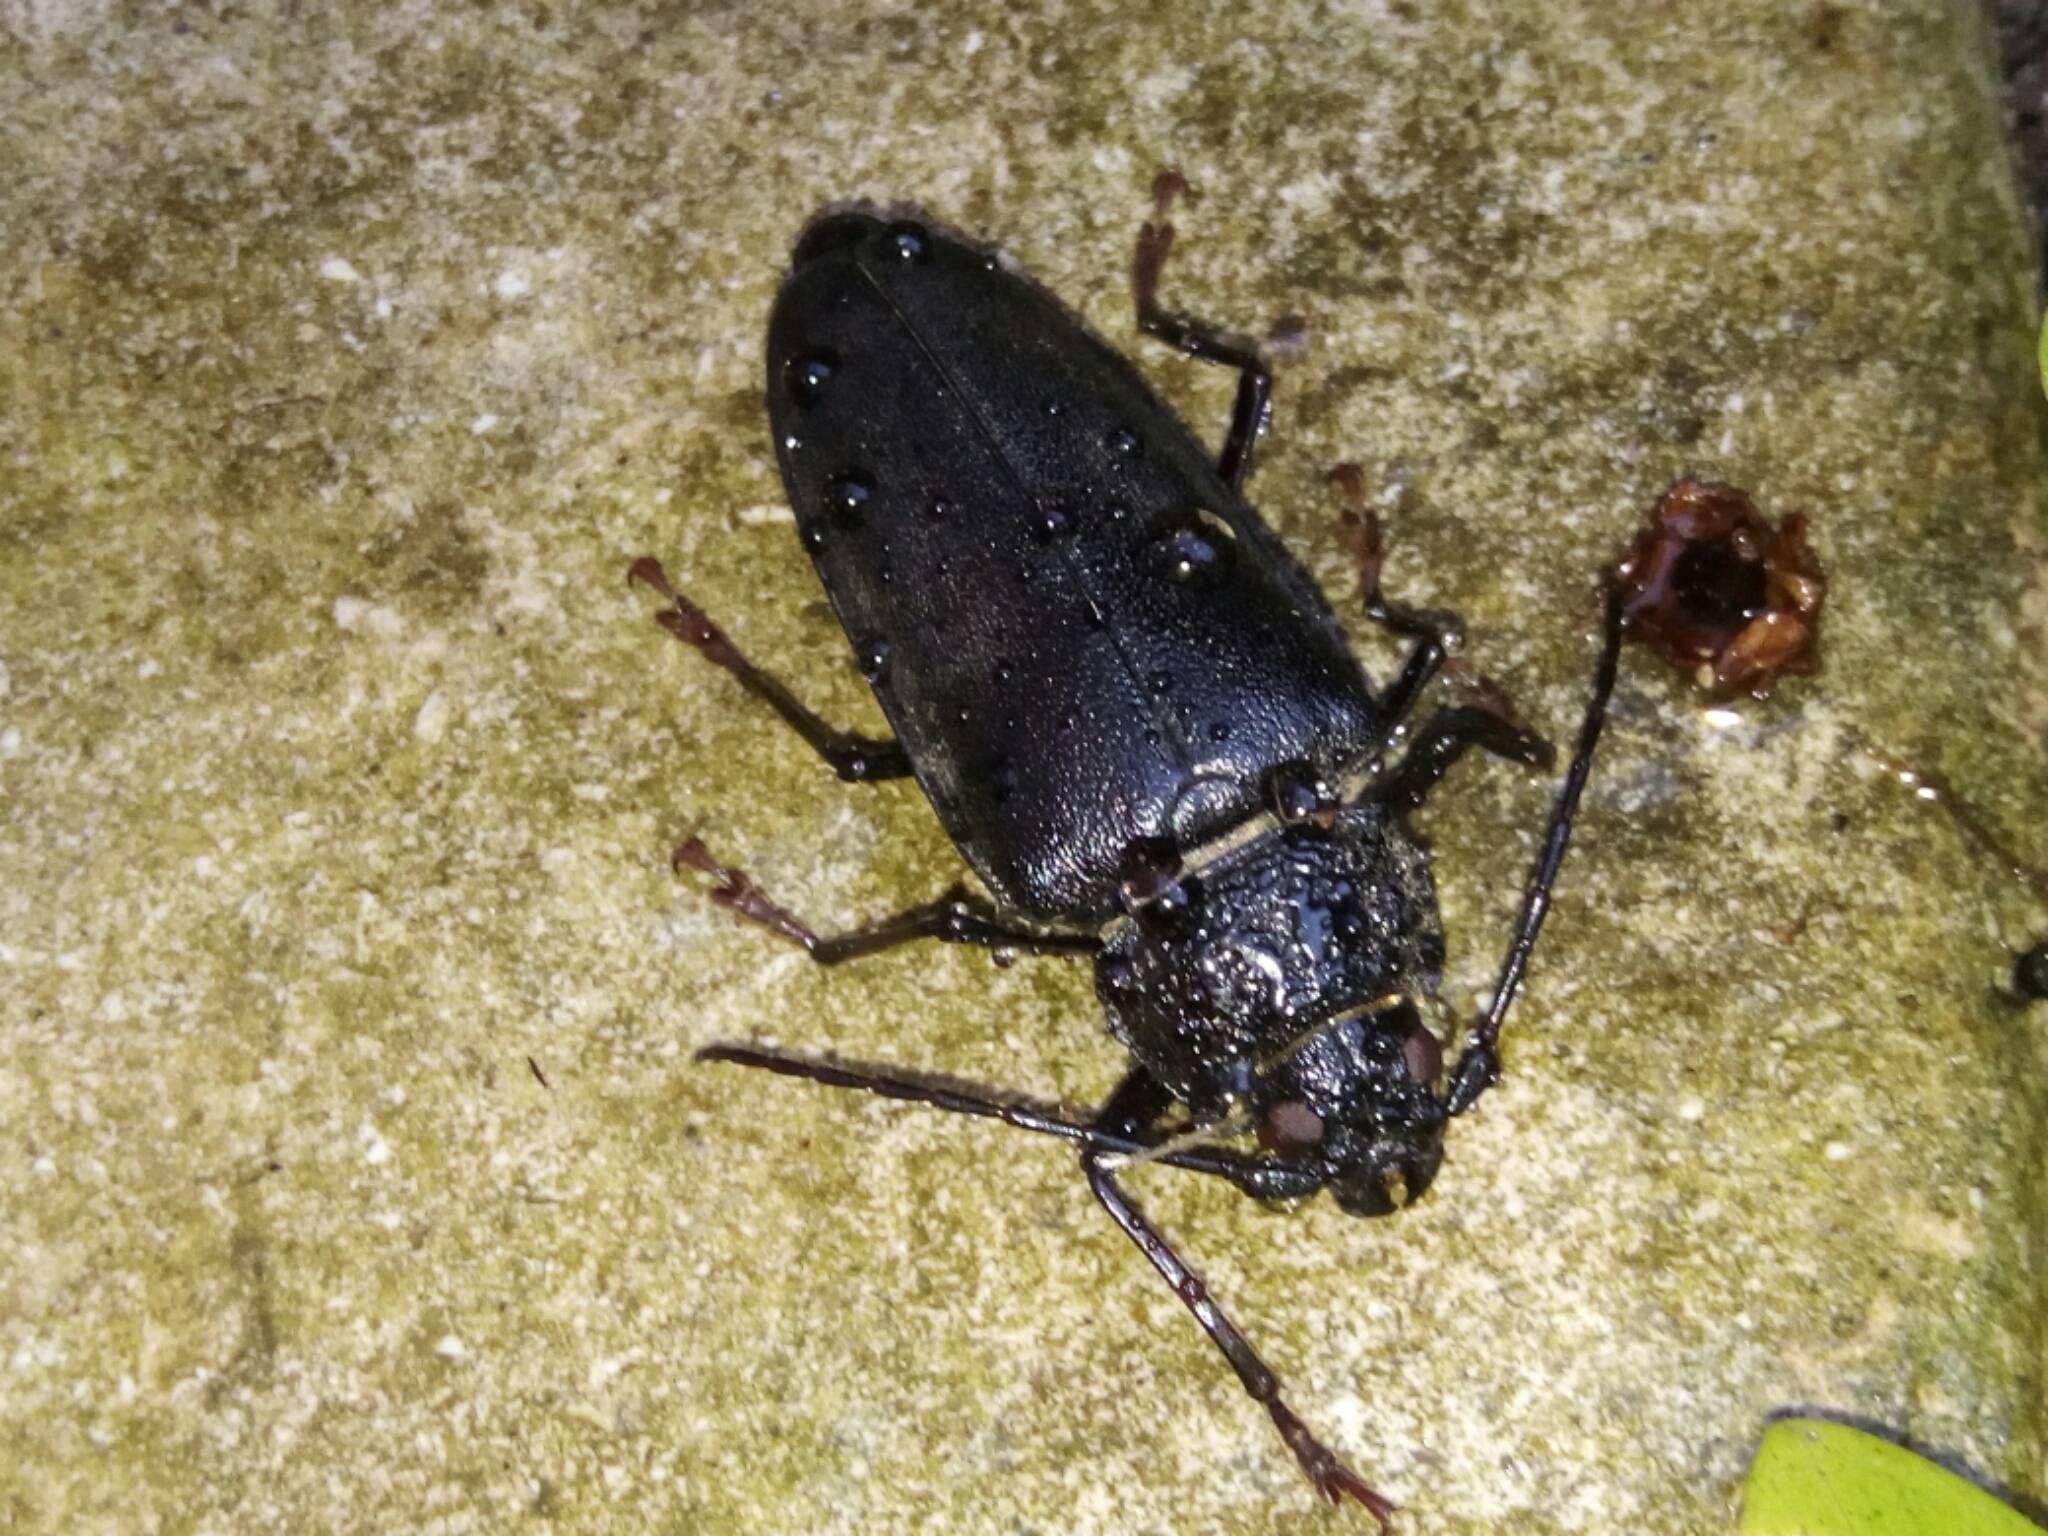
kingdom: Animalia
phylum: Arthropoda
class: Insecta
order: Coleoptera
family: Cerambycidae
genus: Ergates
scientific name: Ergates faber
